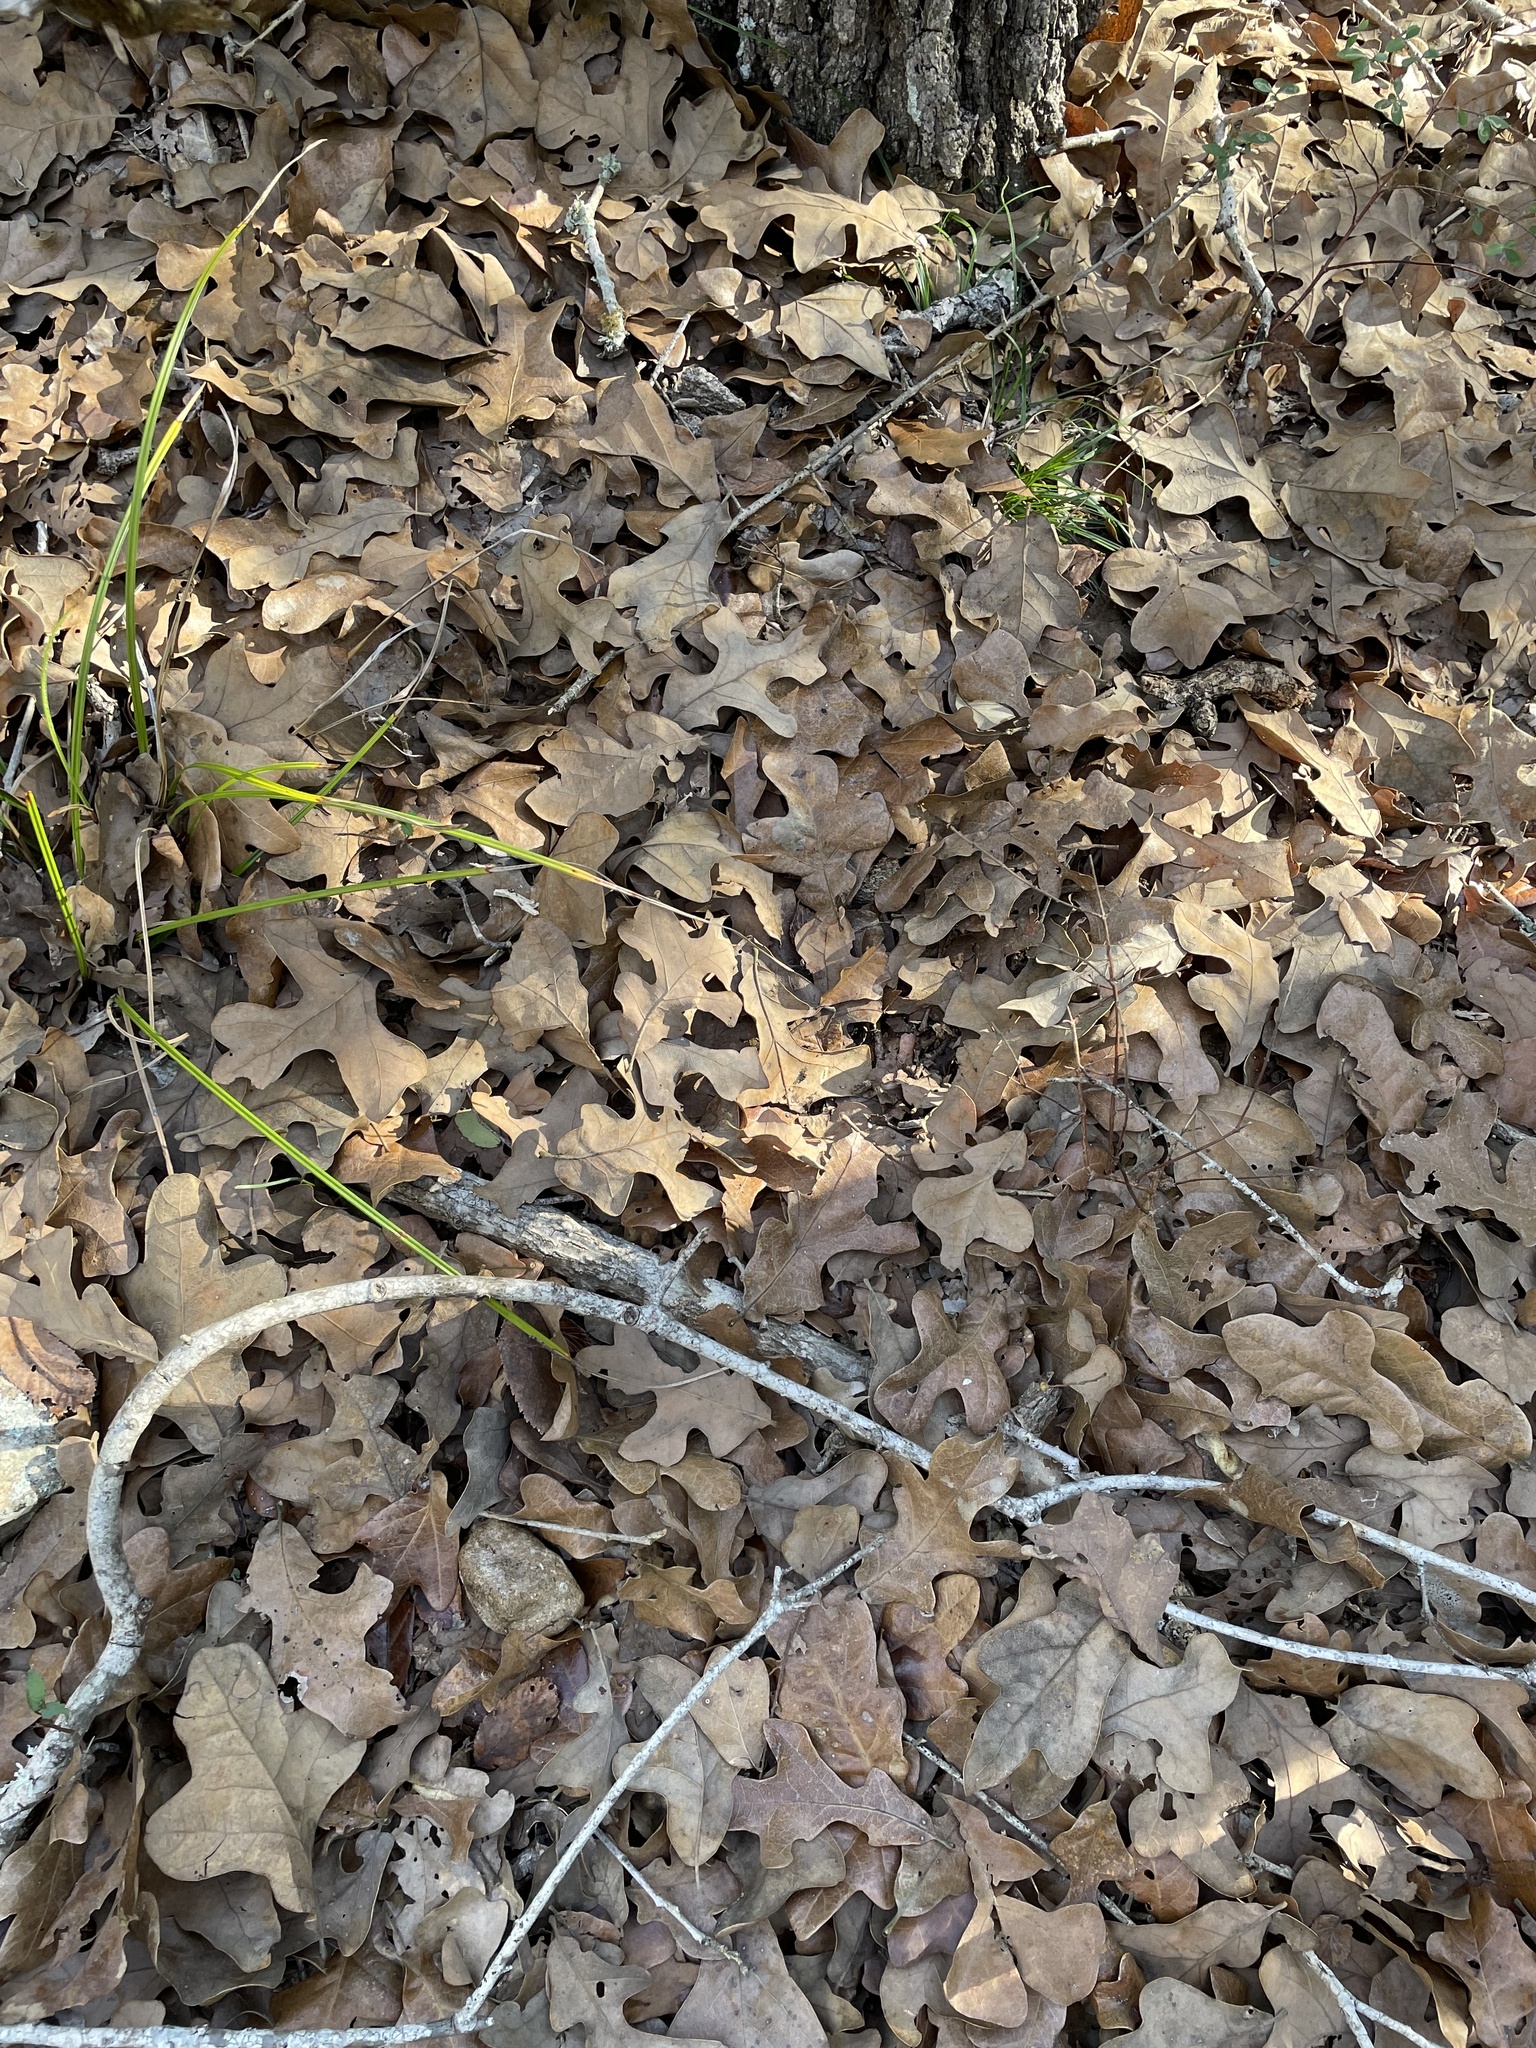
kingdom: Plantae
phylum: Tracheophyta
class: Magnoliopsida
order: Fagales
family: Fagaceae
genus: Quercus
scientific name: Quercus stellata
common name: Post oak
